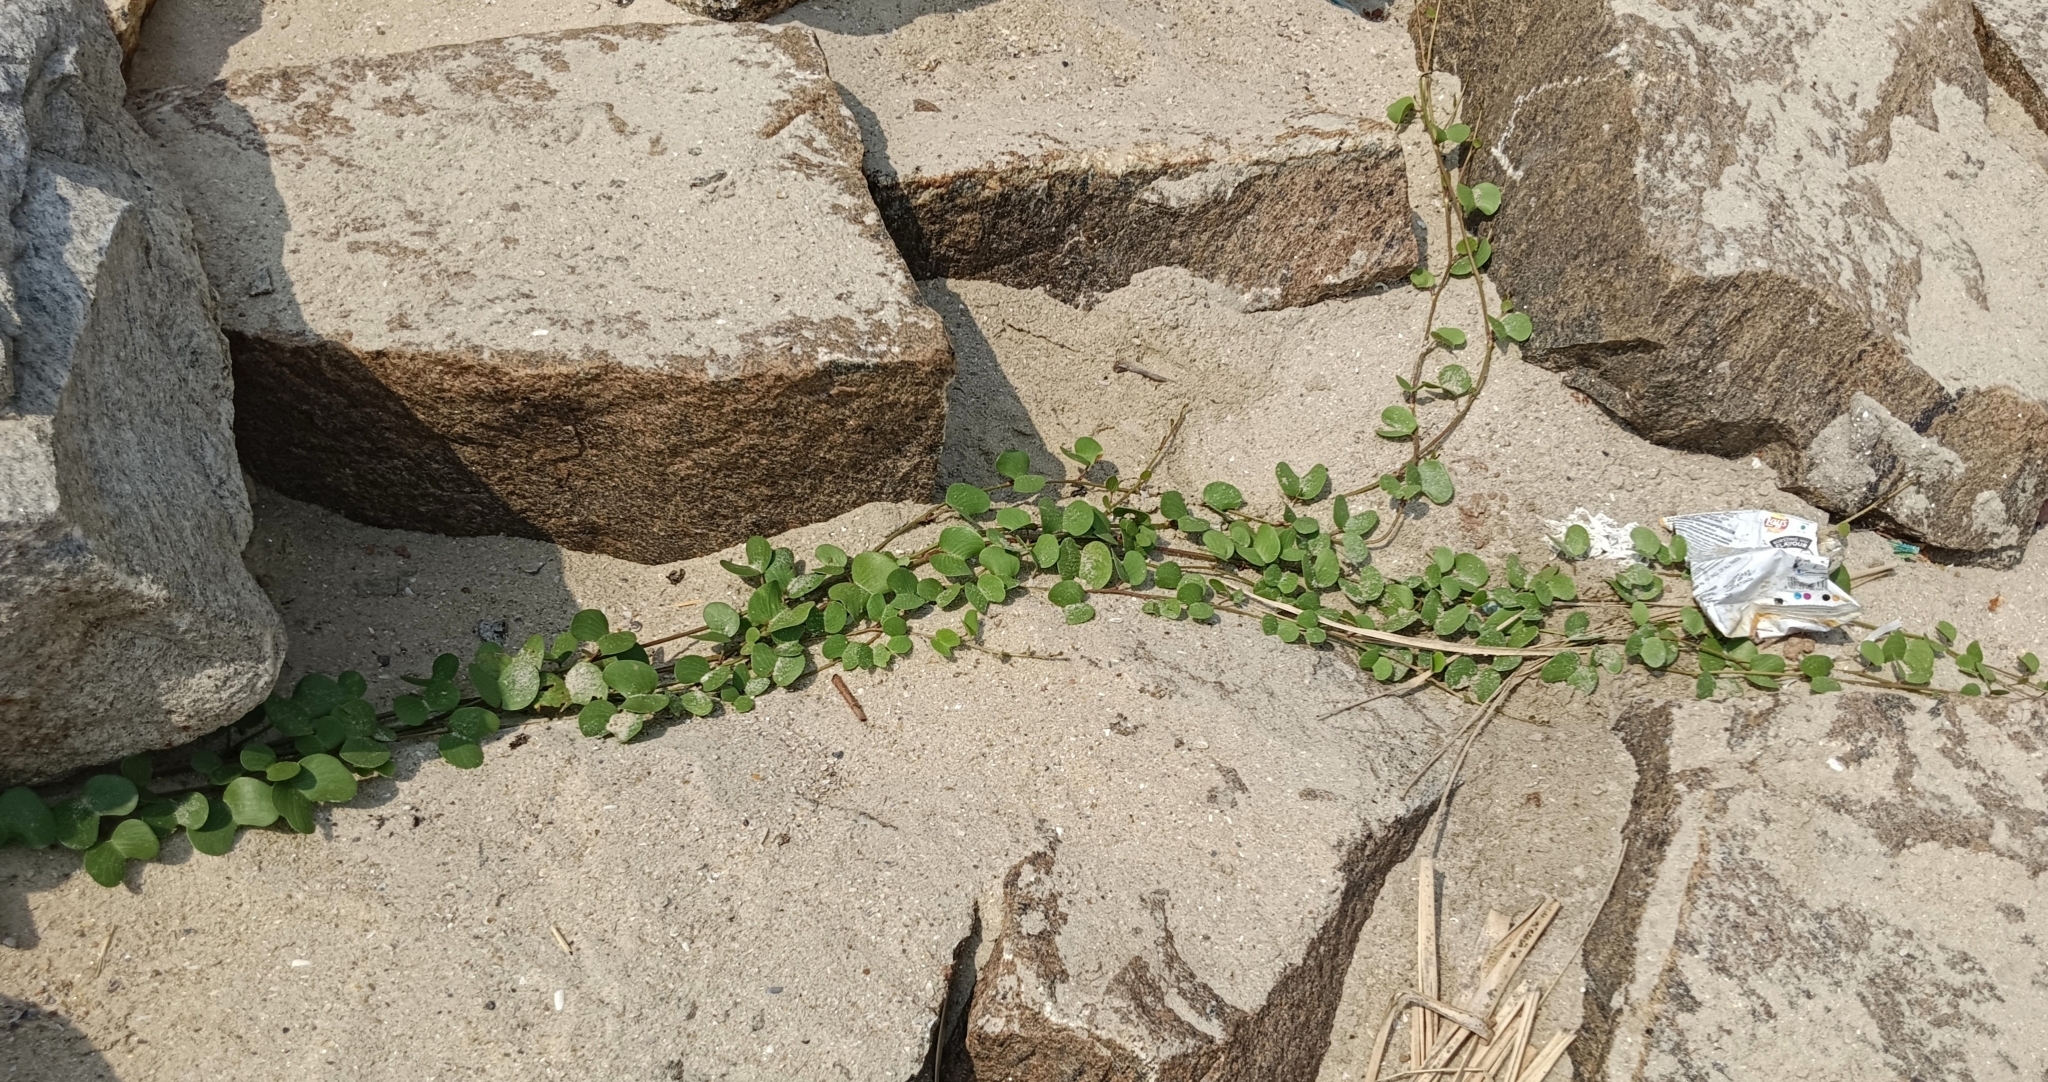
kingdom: Plantae
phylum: Tracheophyta
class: Magnoliopsida
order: Solanales
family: Convolvulaceae
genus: Ipomoea
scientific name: Ipomoea pes-caprae
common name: Beach morning glory
